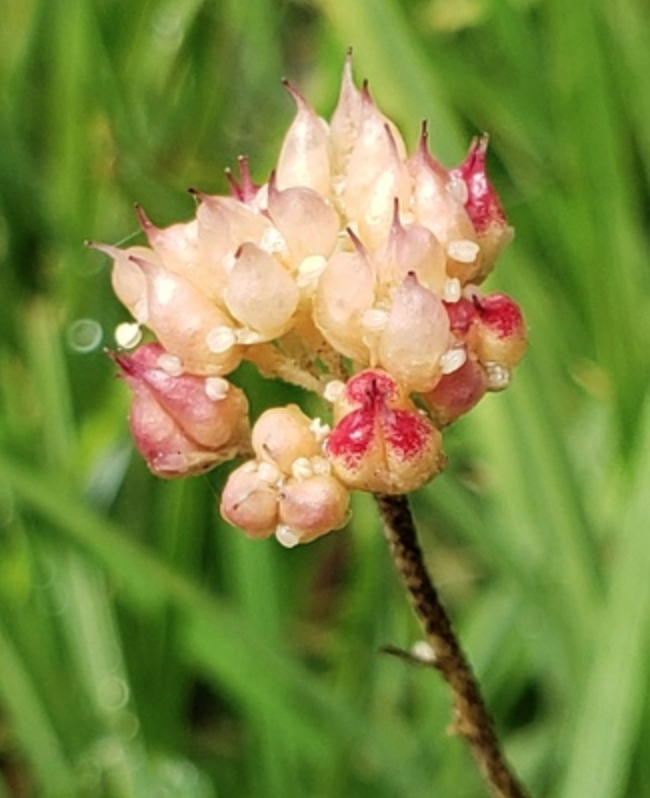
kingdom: Plantae
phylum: Tracheophyta
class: Liliopsida
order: Alismatales
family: Tofieldiaceae
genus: Triantha
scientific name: Triantha occidentalis
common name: Western false asphodel
